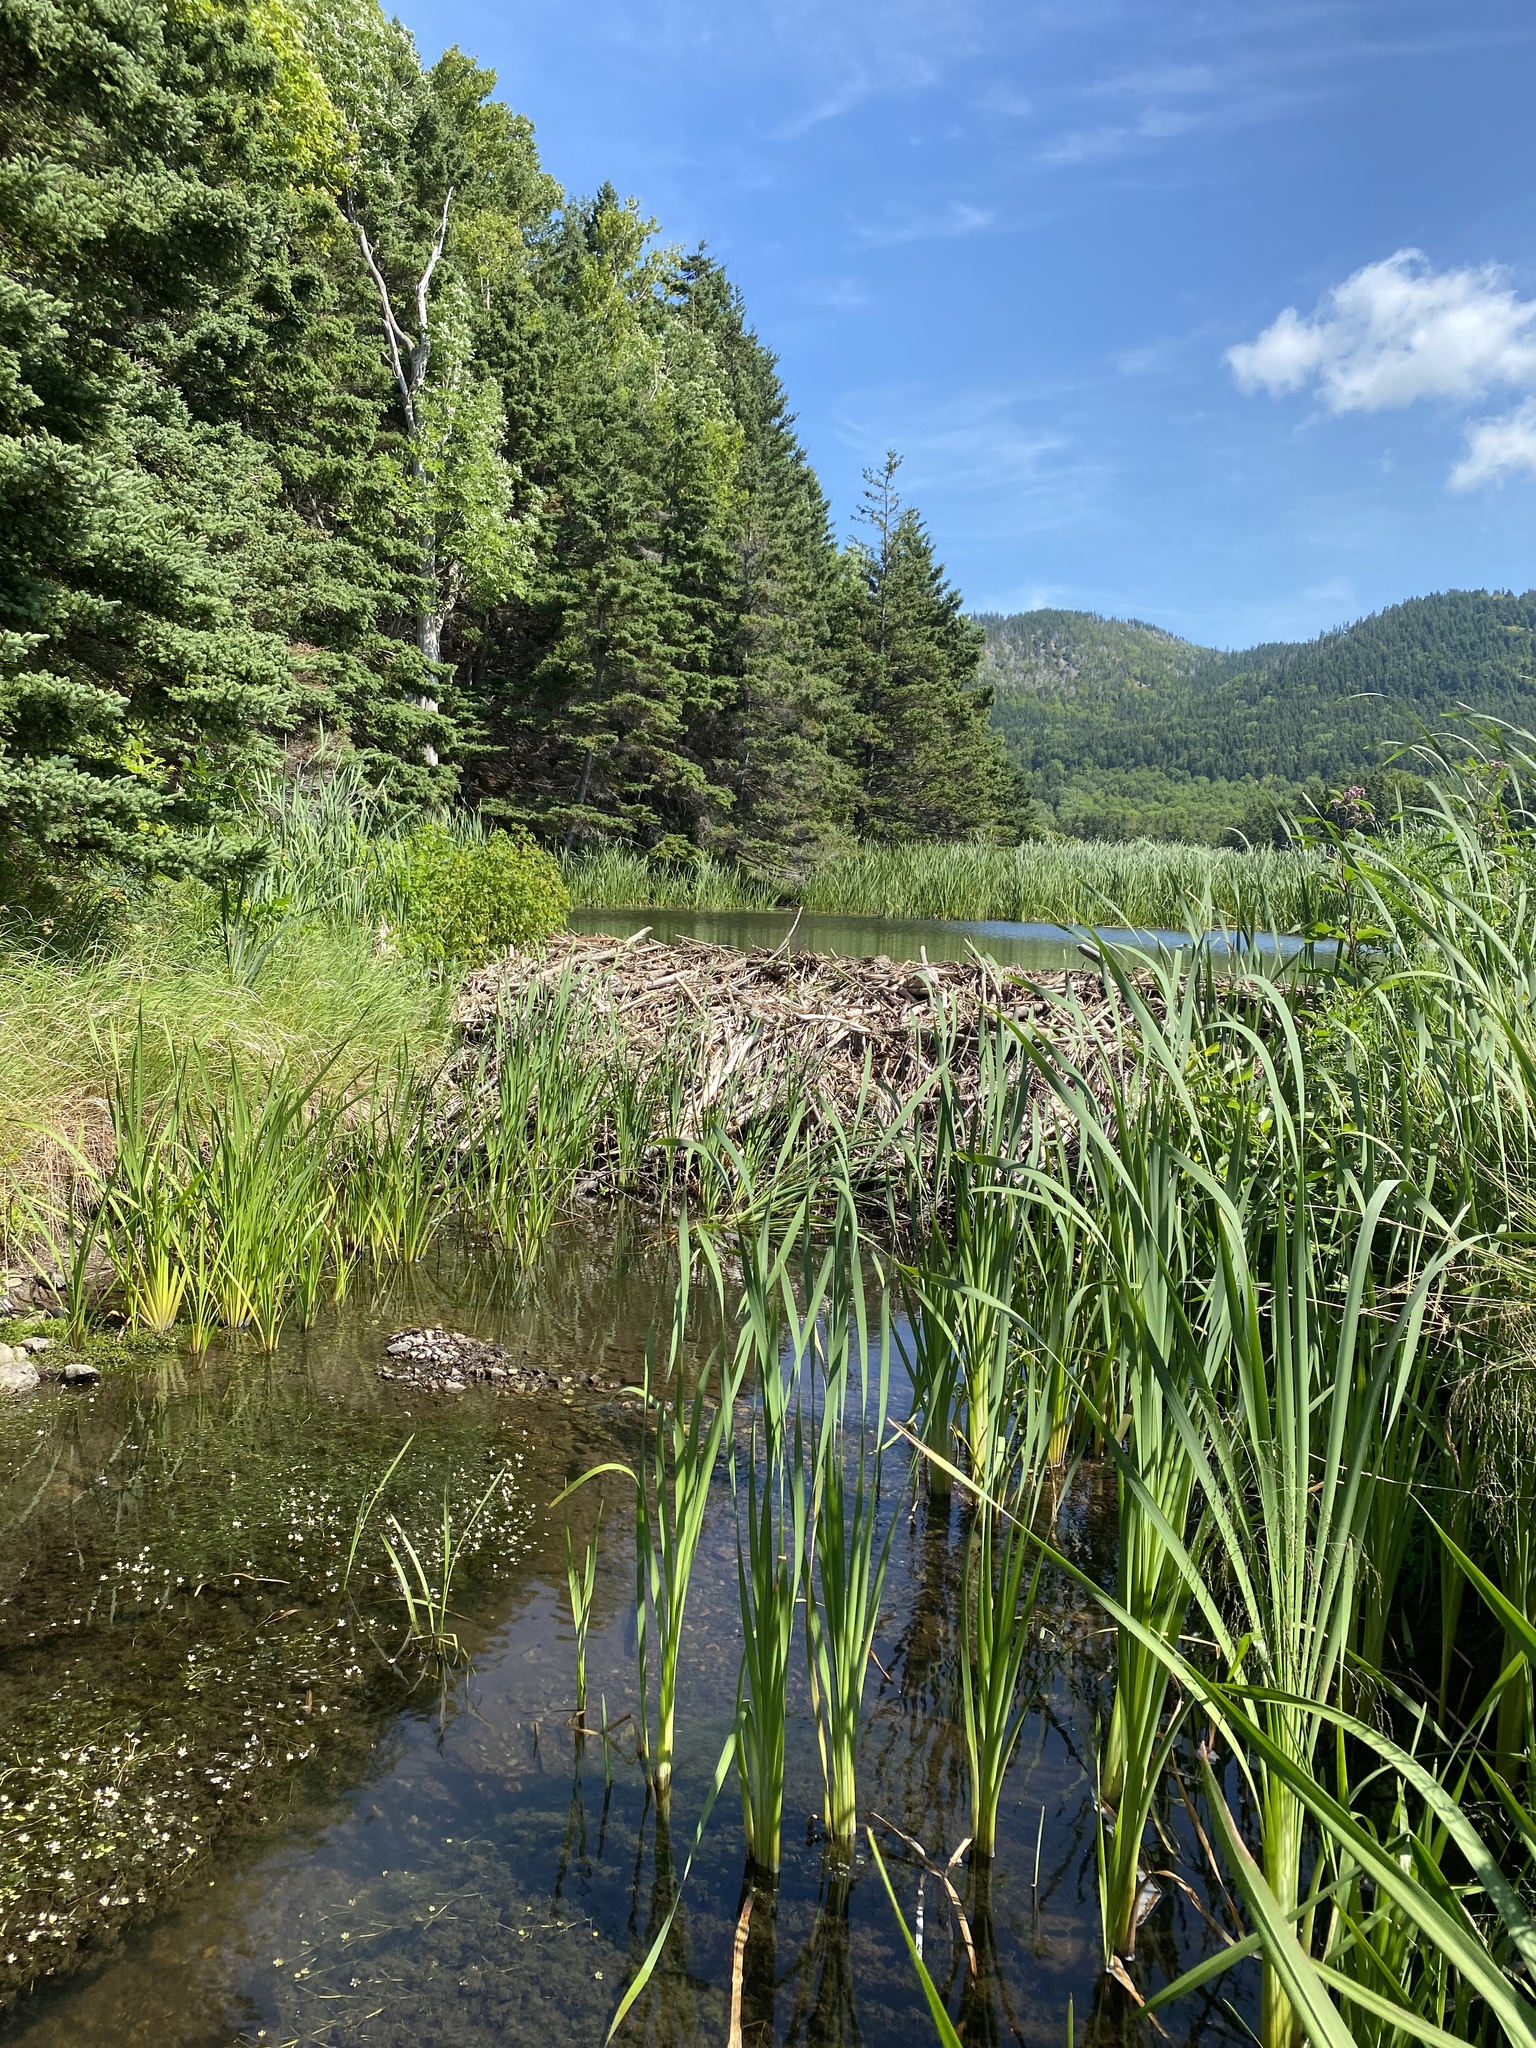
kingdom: Animalia
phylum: Chordata
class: Mammalia
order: Rodentia
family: Castoridae
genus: Castor
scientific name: Castor canadensis
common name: American beaver
